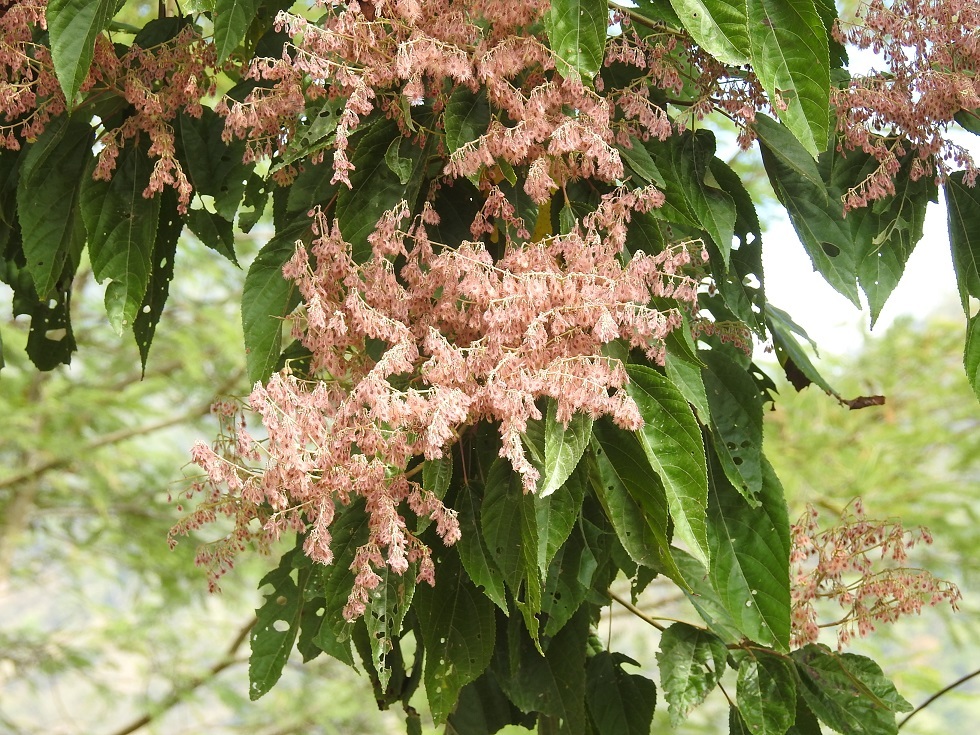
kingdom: Plantae
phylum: Tracheophyta
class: Magnoliopsida
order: Malvales
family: Malvaceae
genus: Heliocarpus
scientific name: Heliocarpus terebinthinaceus
